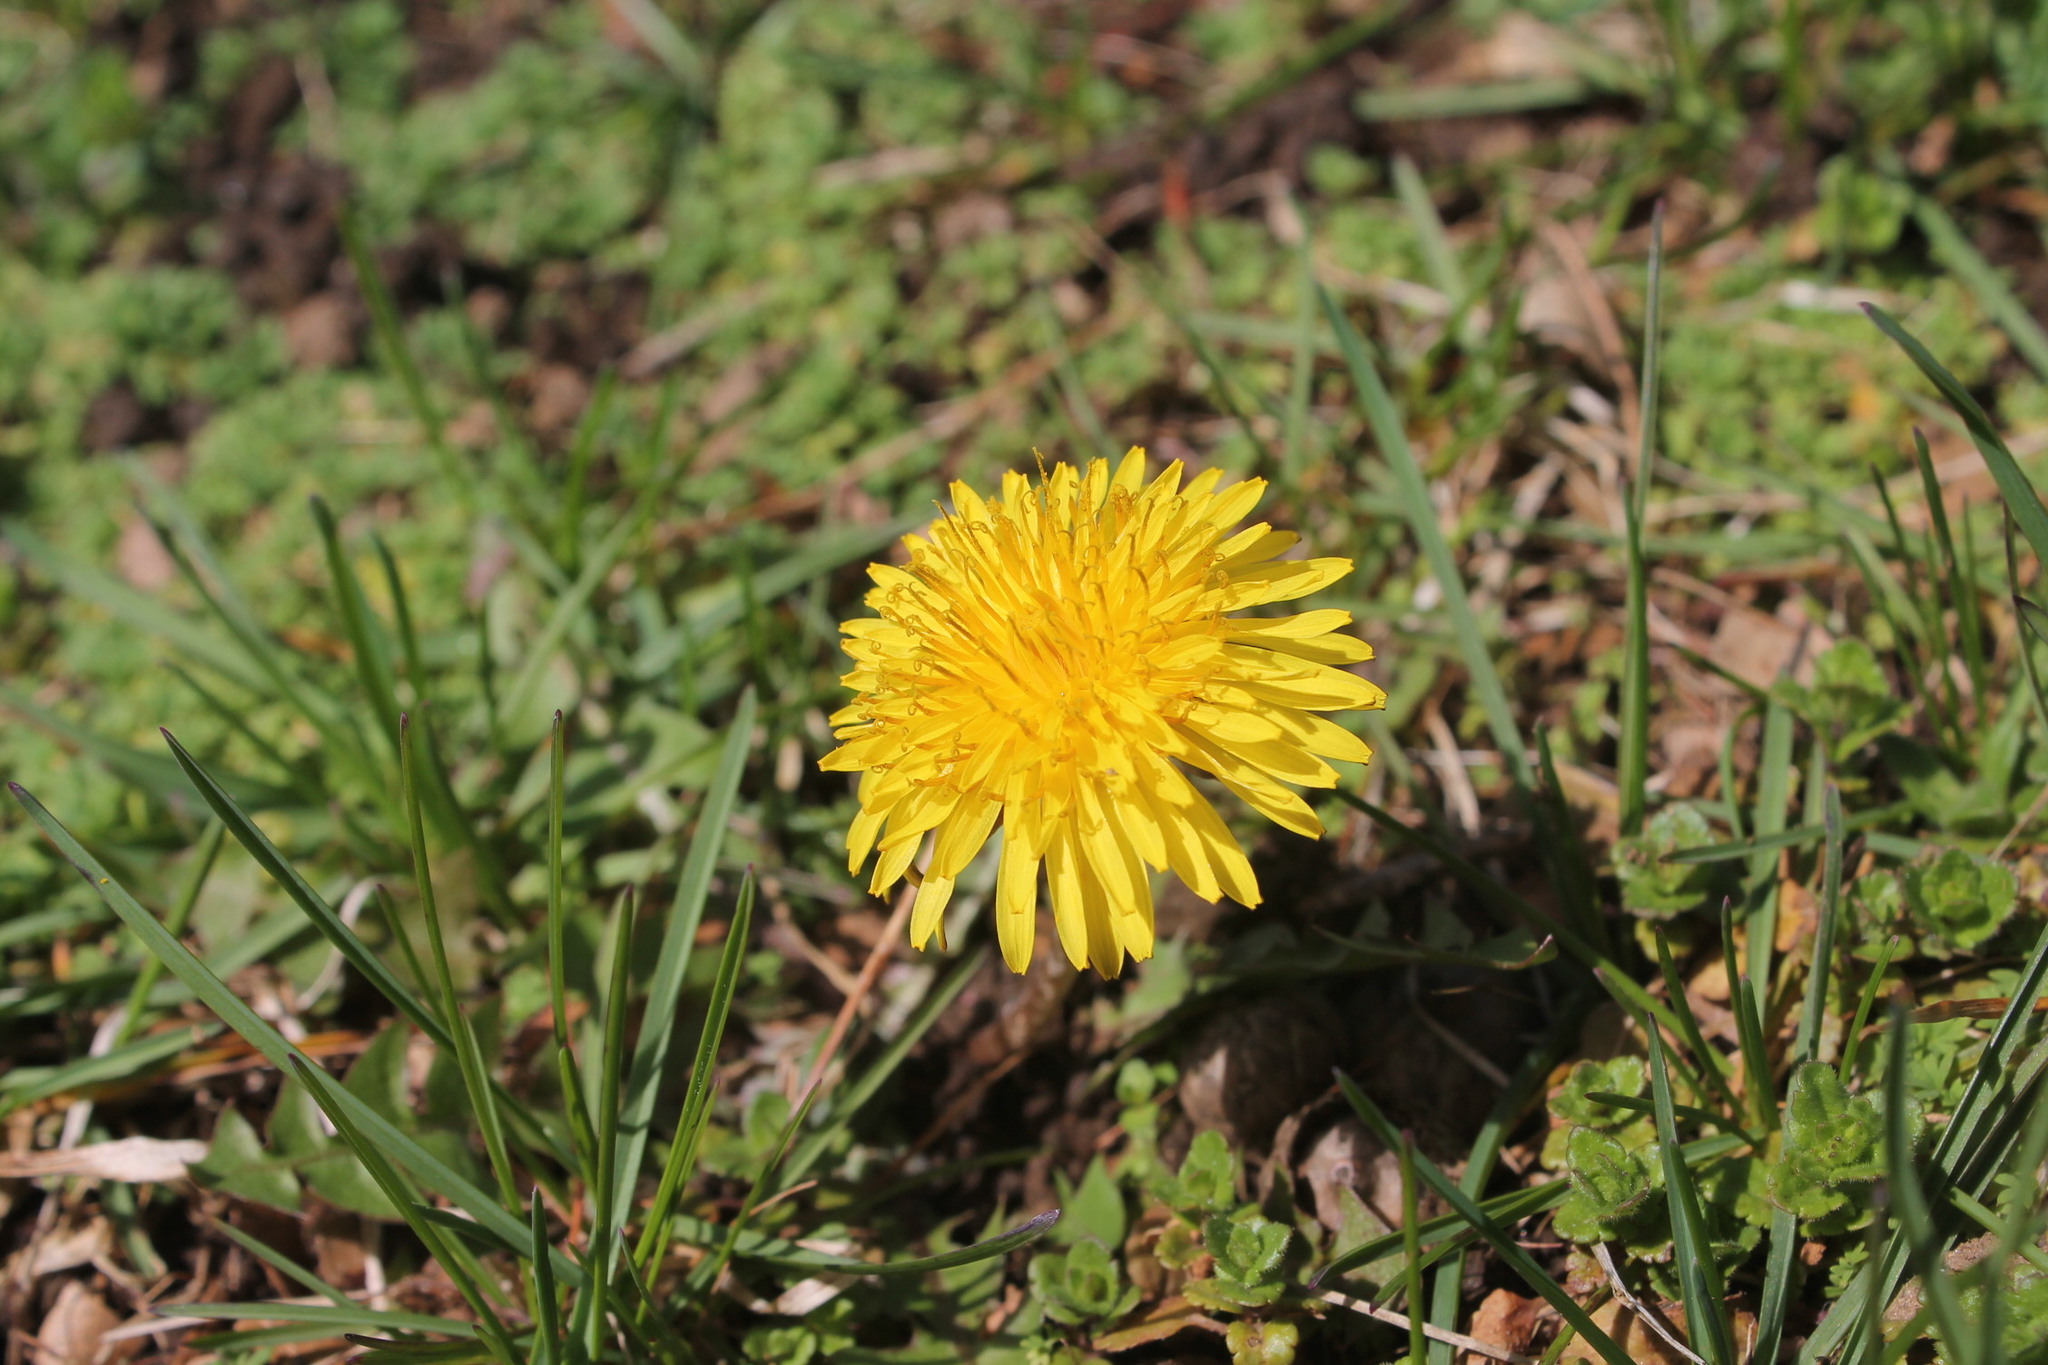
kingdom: Plantae
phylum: Tracheophyta
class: Magnoliopsida
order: Asterales
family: Asteraceae
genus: Taraxacum
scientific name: Taraxacum officinale
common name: Common dandelion
